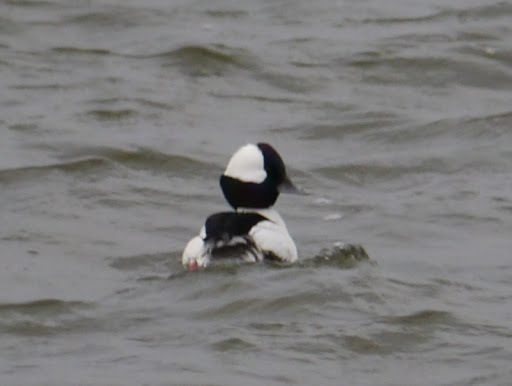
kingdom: Animalia
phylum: Chordata
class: Aves
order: Anseriformes
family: Anatidae
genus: Bucephala
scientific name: Bucephala albeola
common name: Bufflehead
